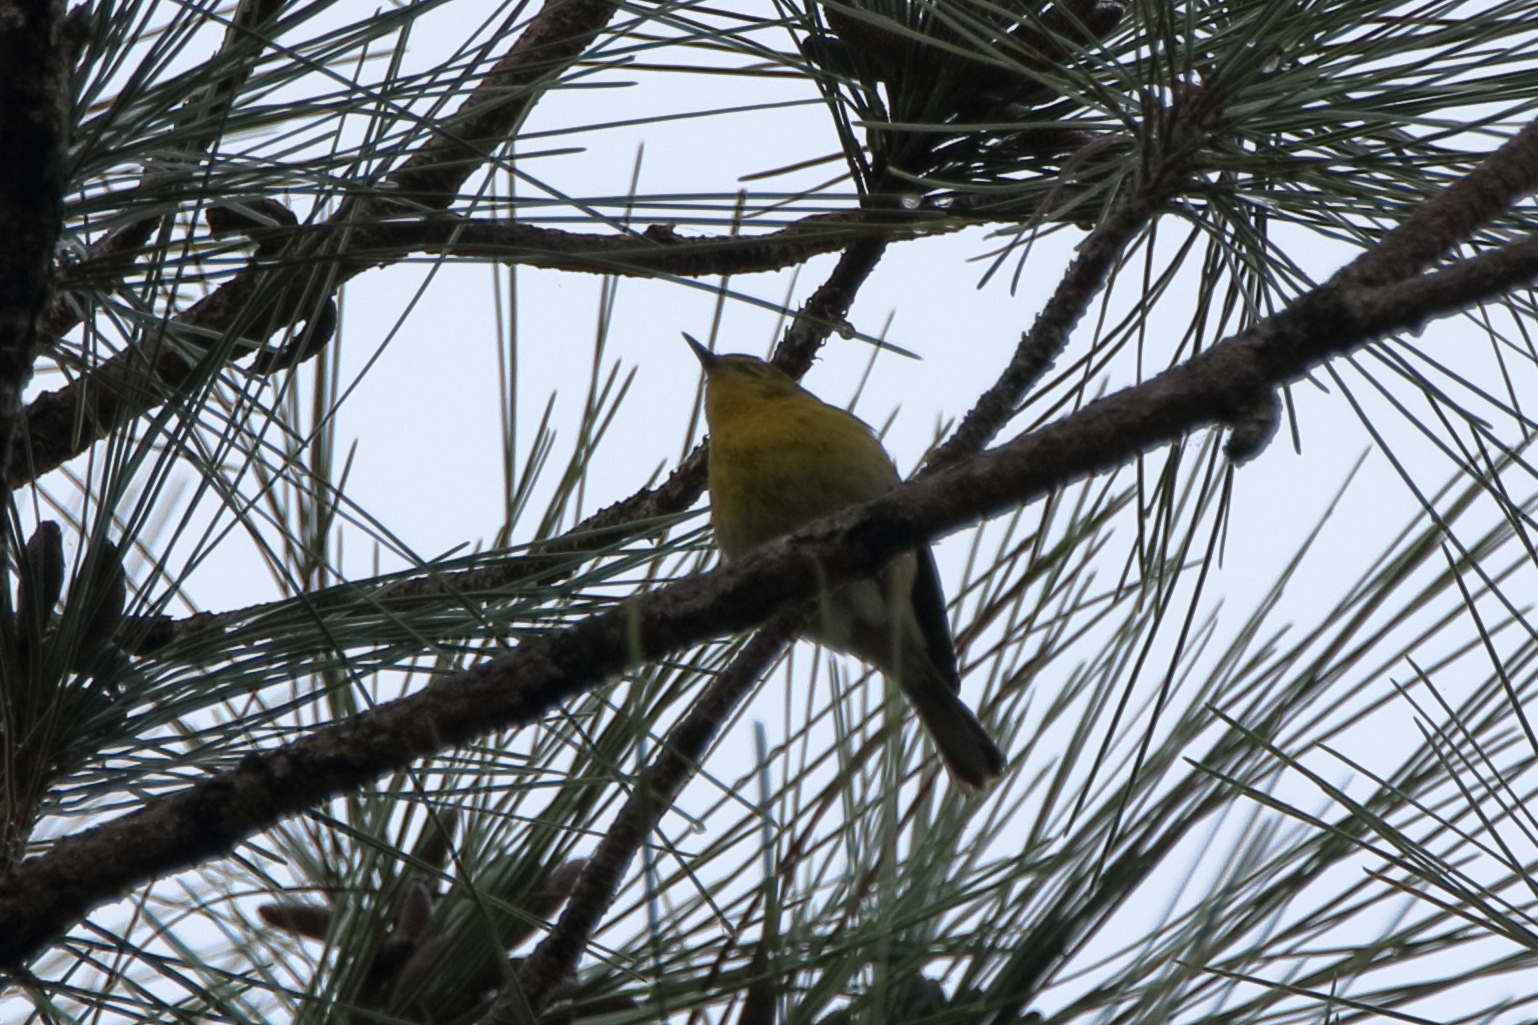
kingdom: Animalia
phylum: Chordata
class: Aves
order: Passeriformes
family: Parulidae
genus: Setophaga
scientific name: Setophaga pinus
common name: Pine warbler
